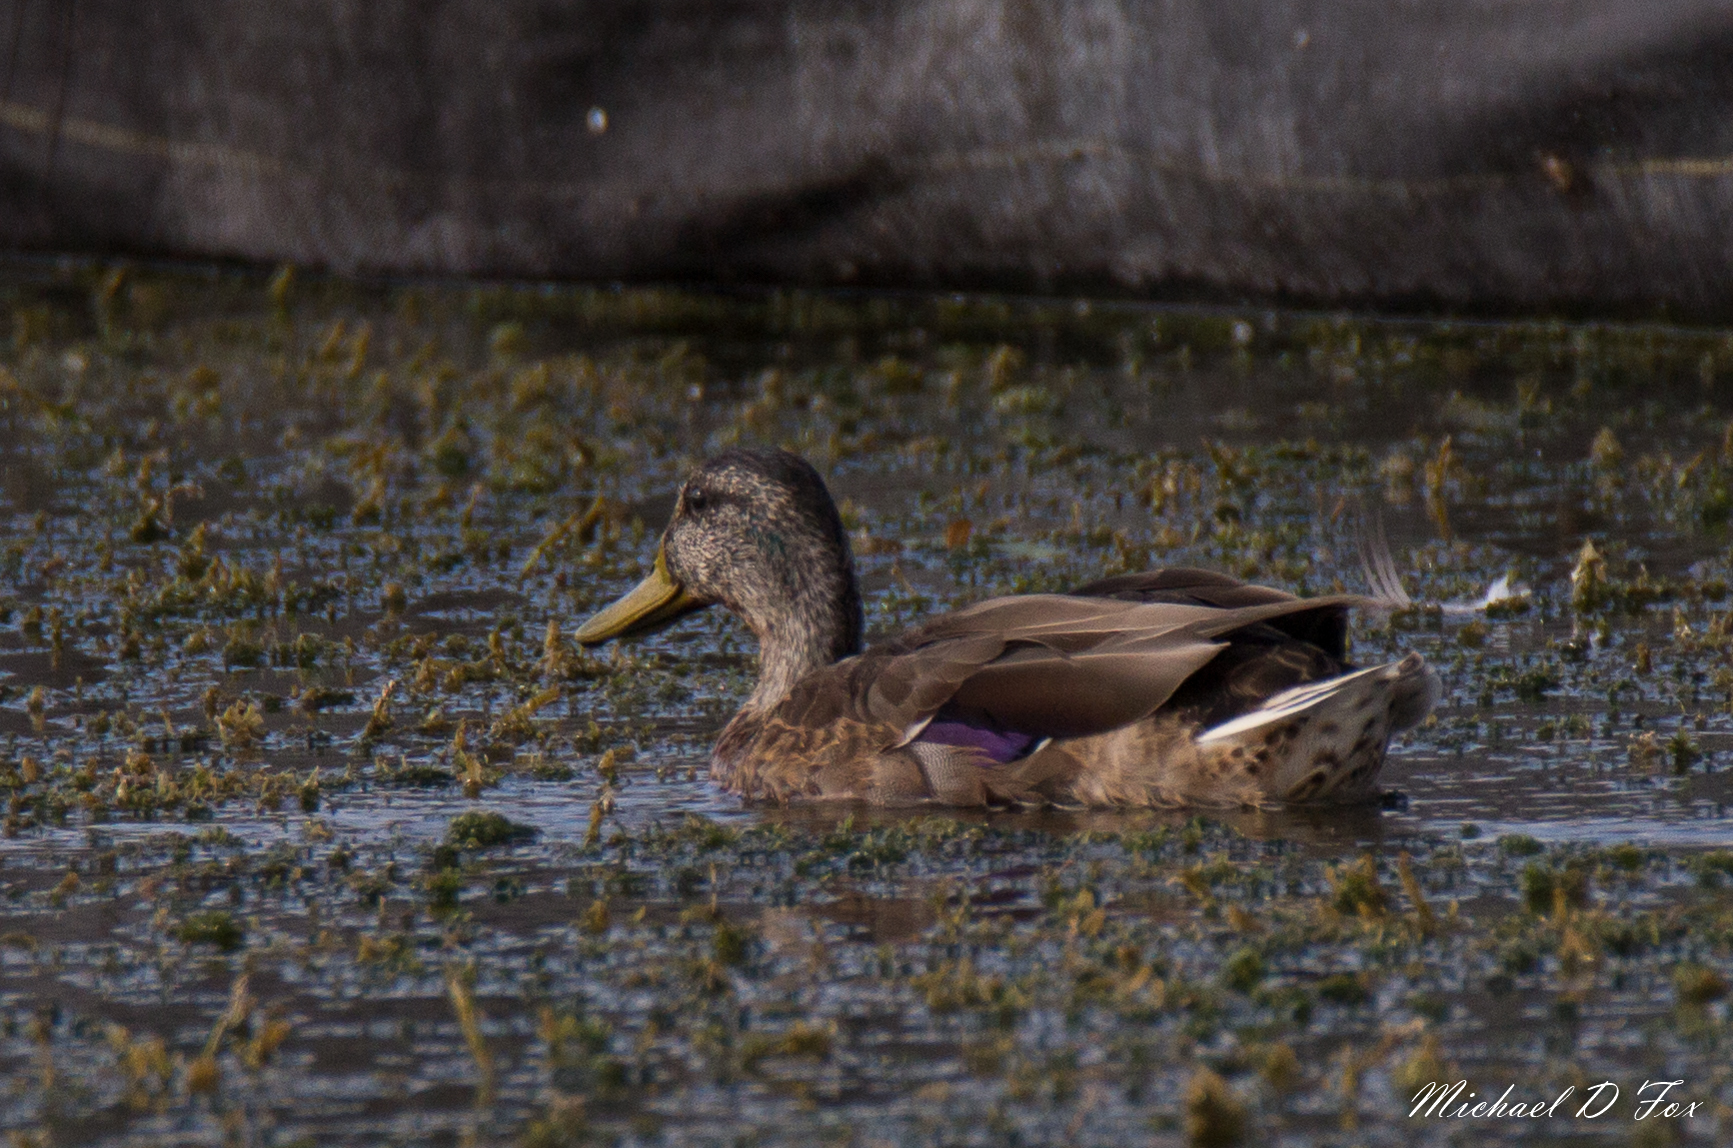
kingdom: Animalia
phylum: Chordata
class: Aves
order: Anseriformes
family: Anatidae
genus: Anas
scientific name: Anas platyrhynchos
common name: Mallard
